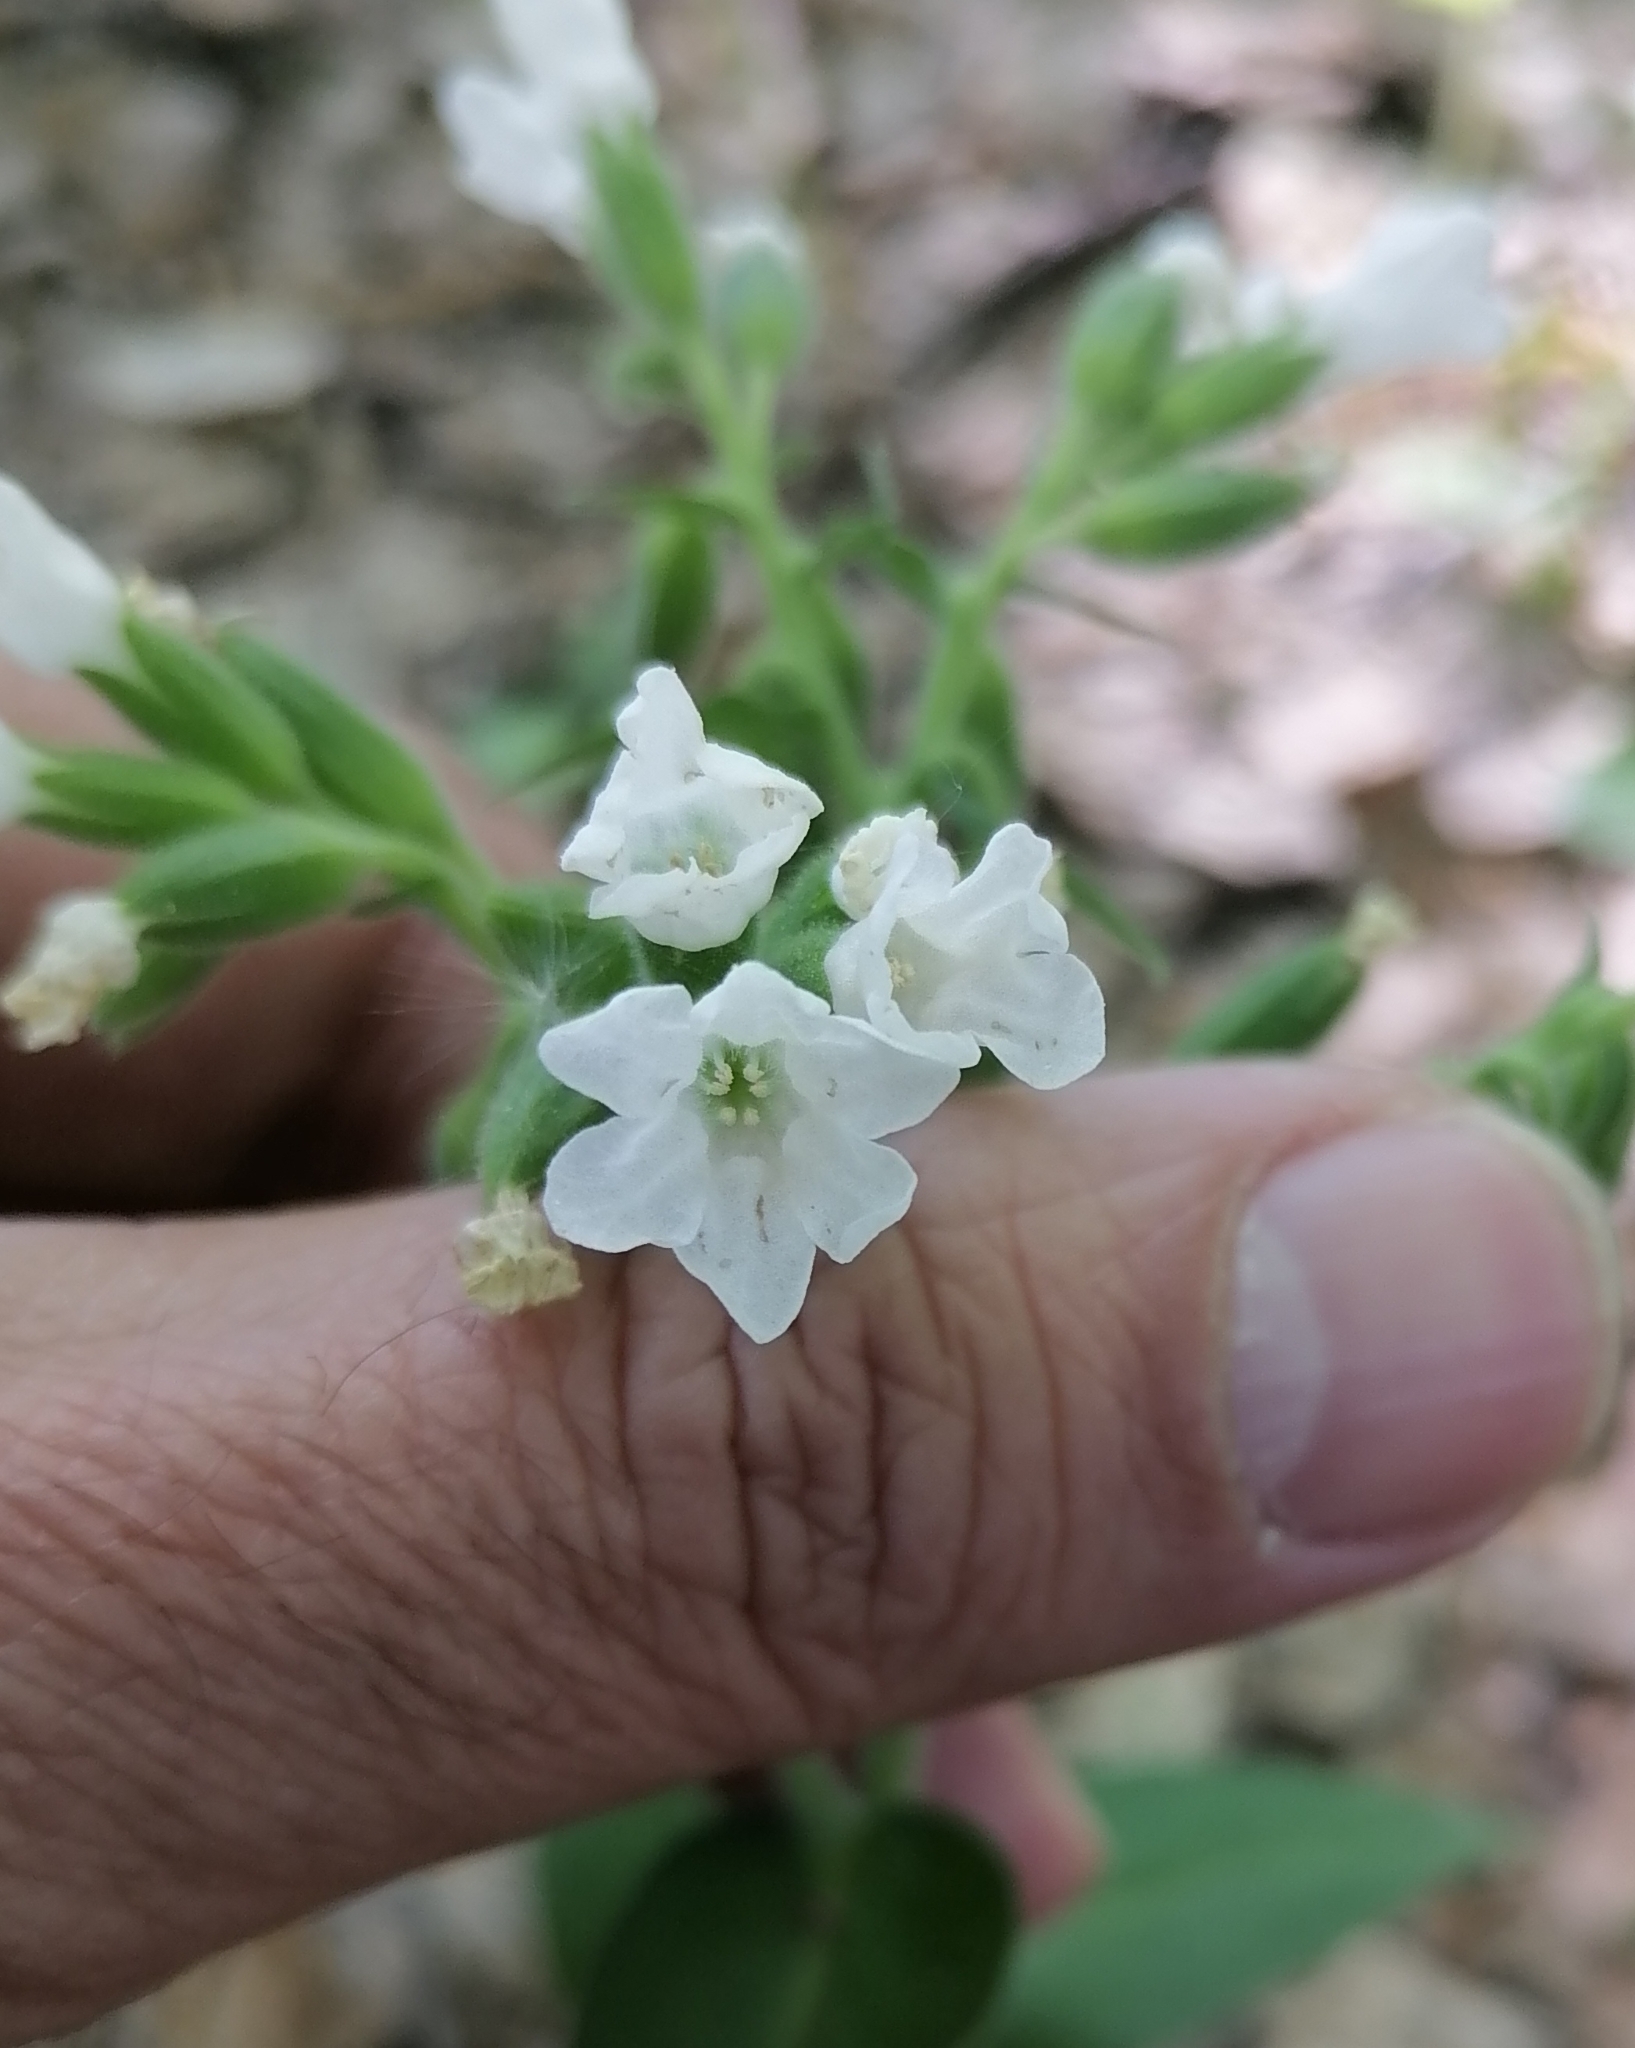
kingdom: Plantae
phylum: Tracheophyta
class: Magnoliopsida
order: Boraginales
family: Boraginaceae
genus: Pulmonaria
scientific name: Pulmonaria mollis
